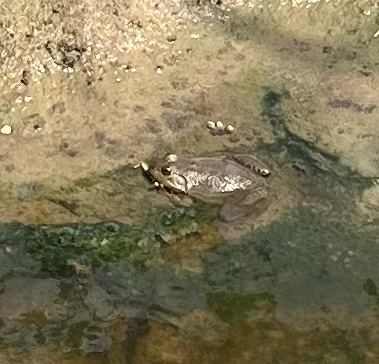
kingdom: Animalia
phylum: Chordata
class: Amphibia
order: Anura
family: Ranidae
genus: Lithobates
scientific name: Lithobates catesbeianus
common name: American bullfrog
